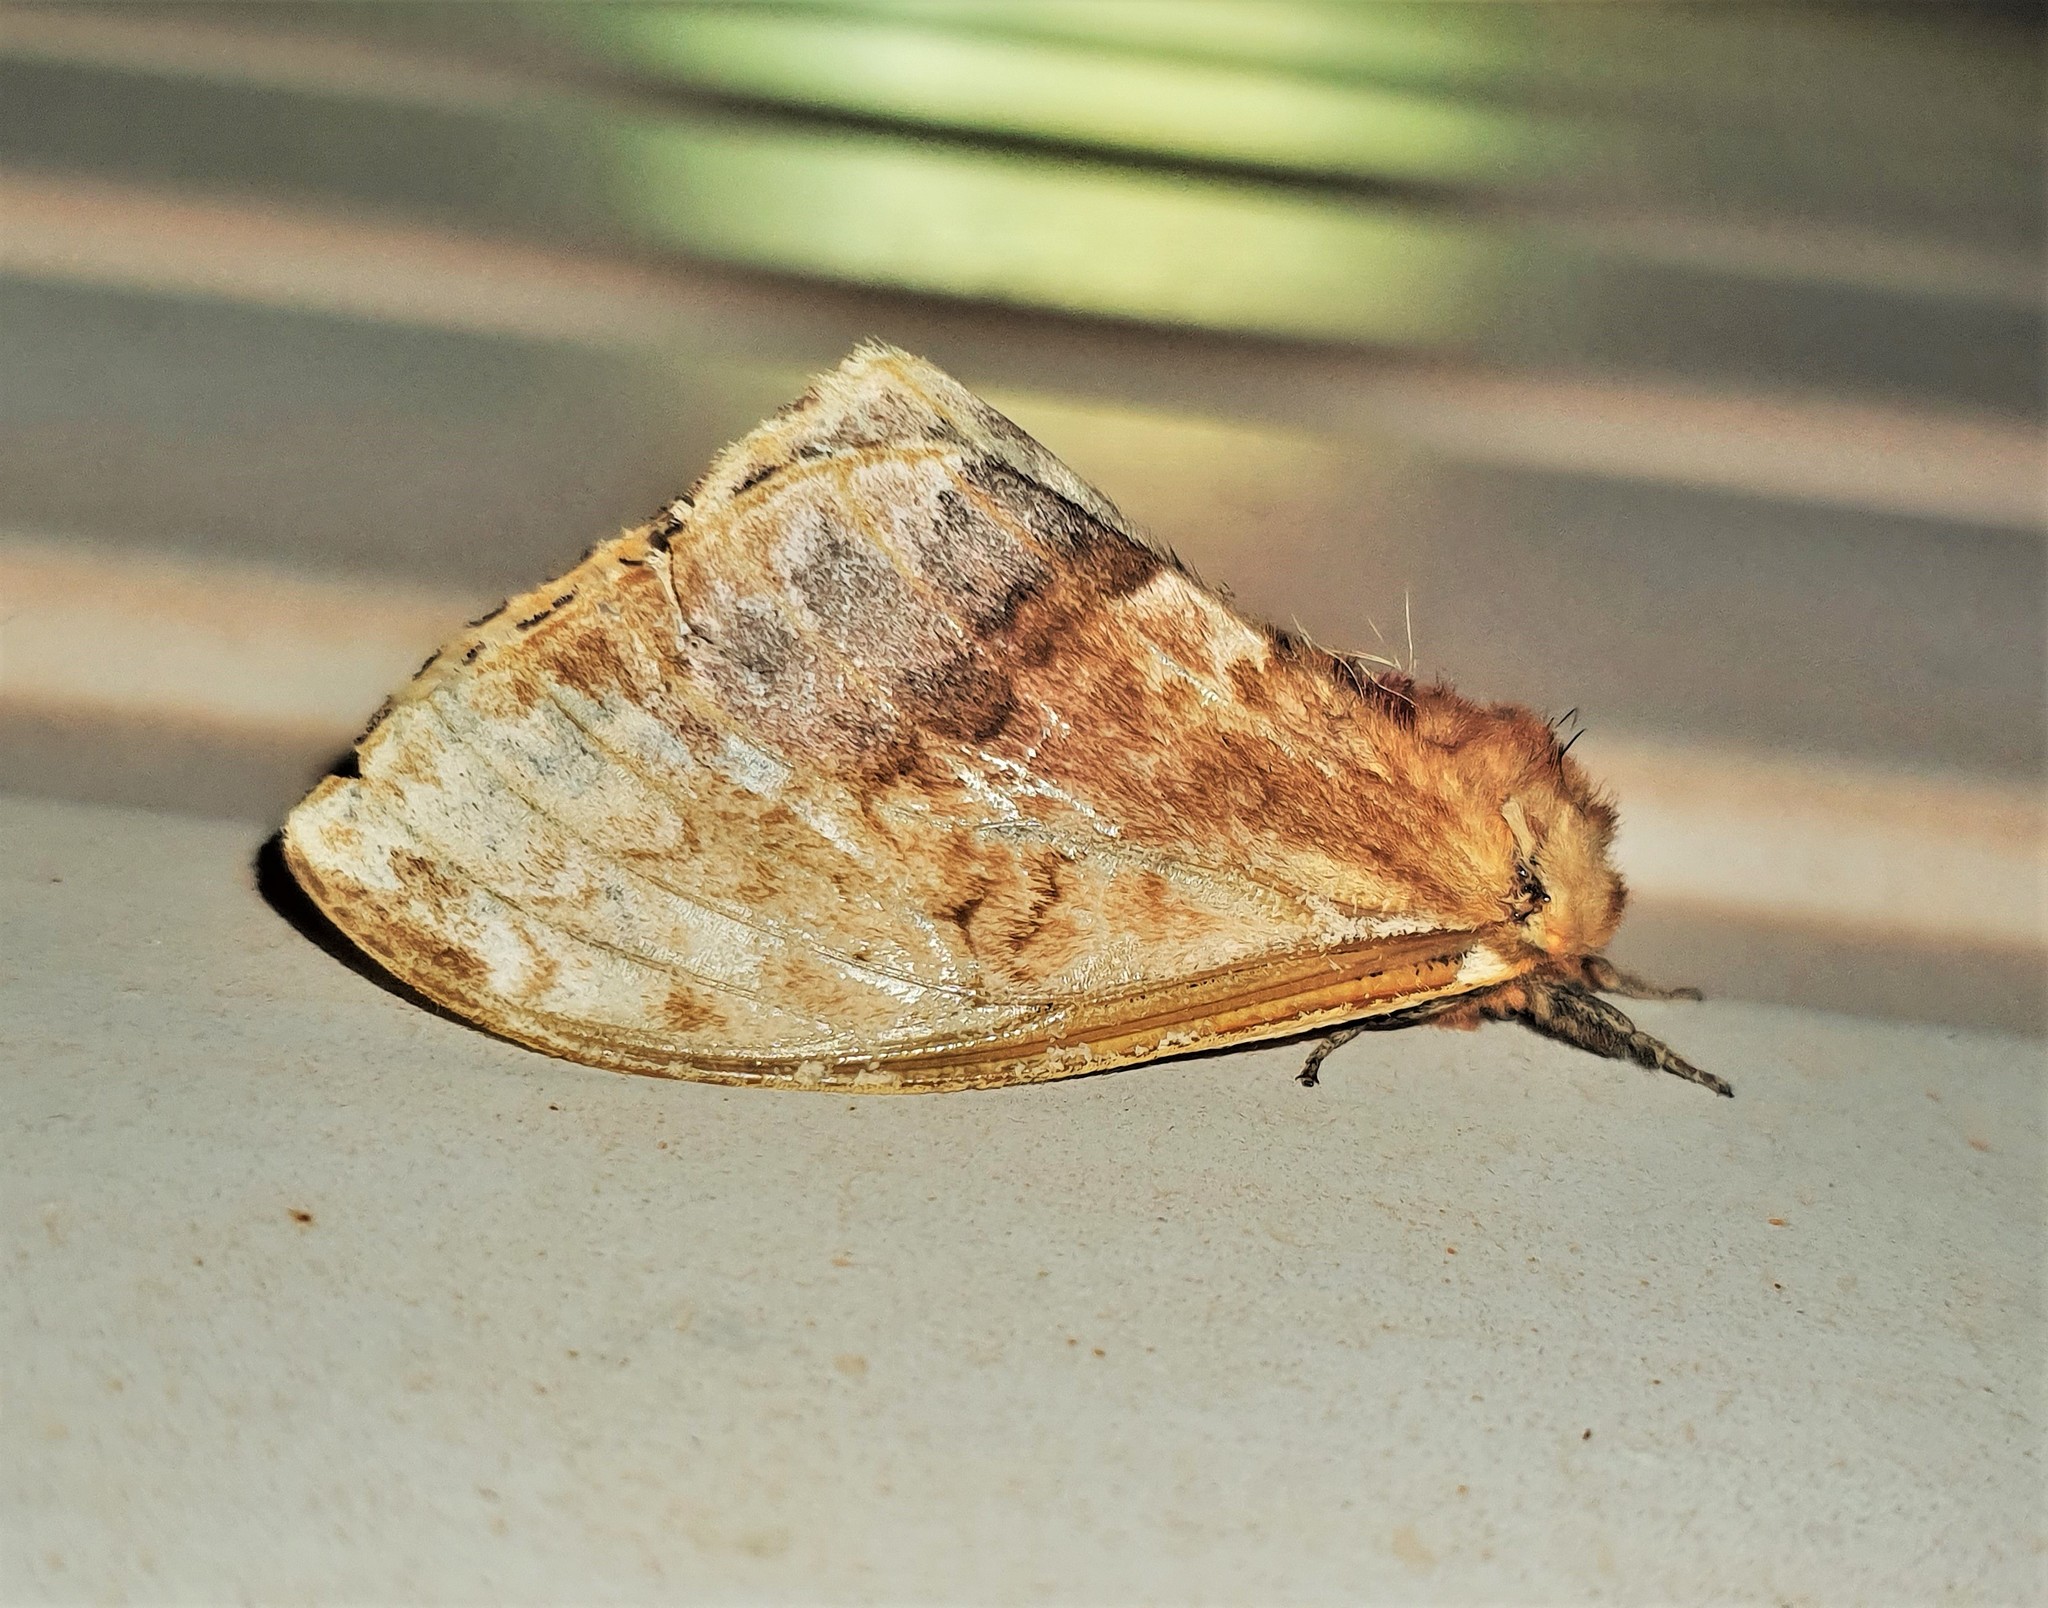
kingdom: Animalia
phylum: Arthropoda
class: Insecta
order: Lepidoptera
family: Saturniidae
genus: Molippa
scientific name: Molippa simillima
